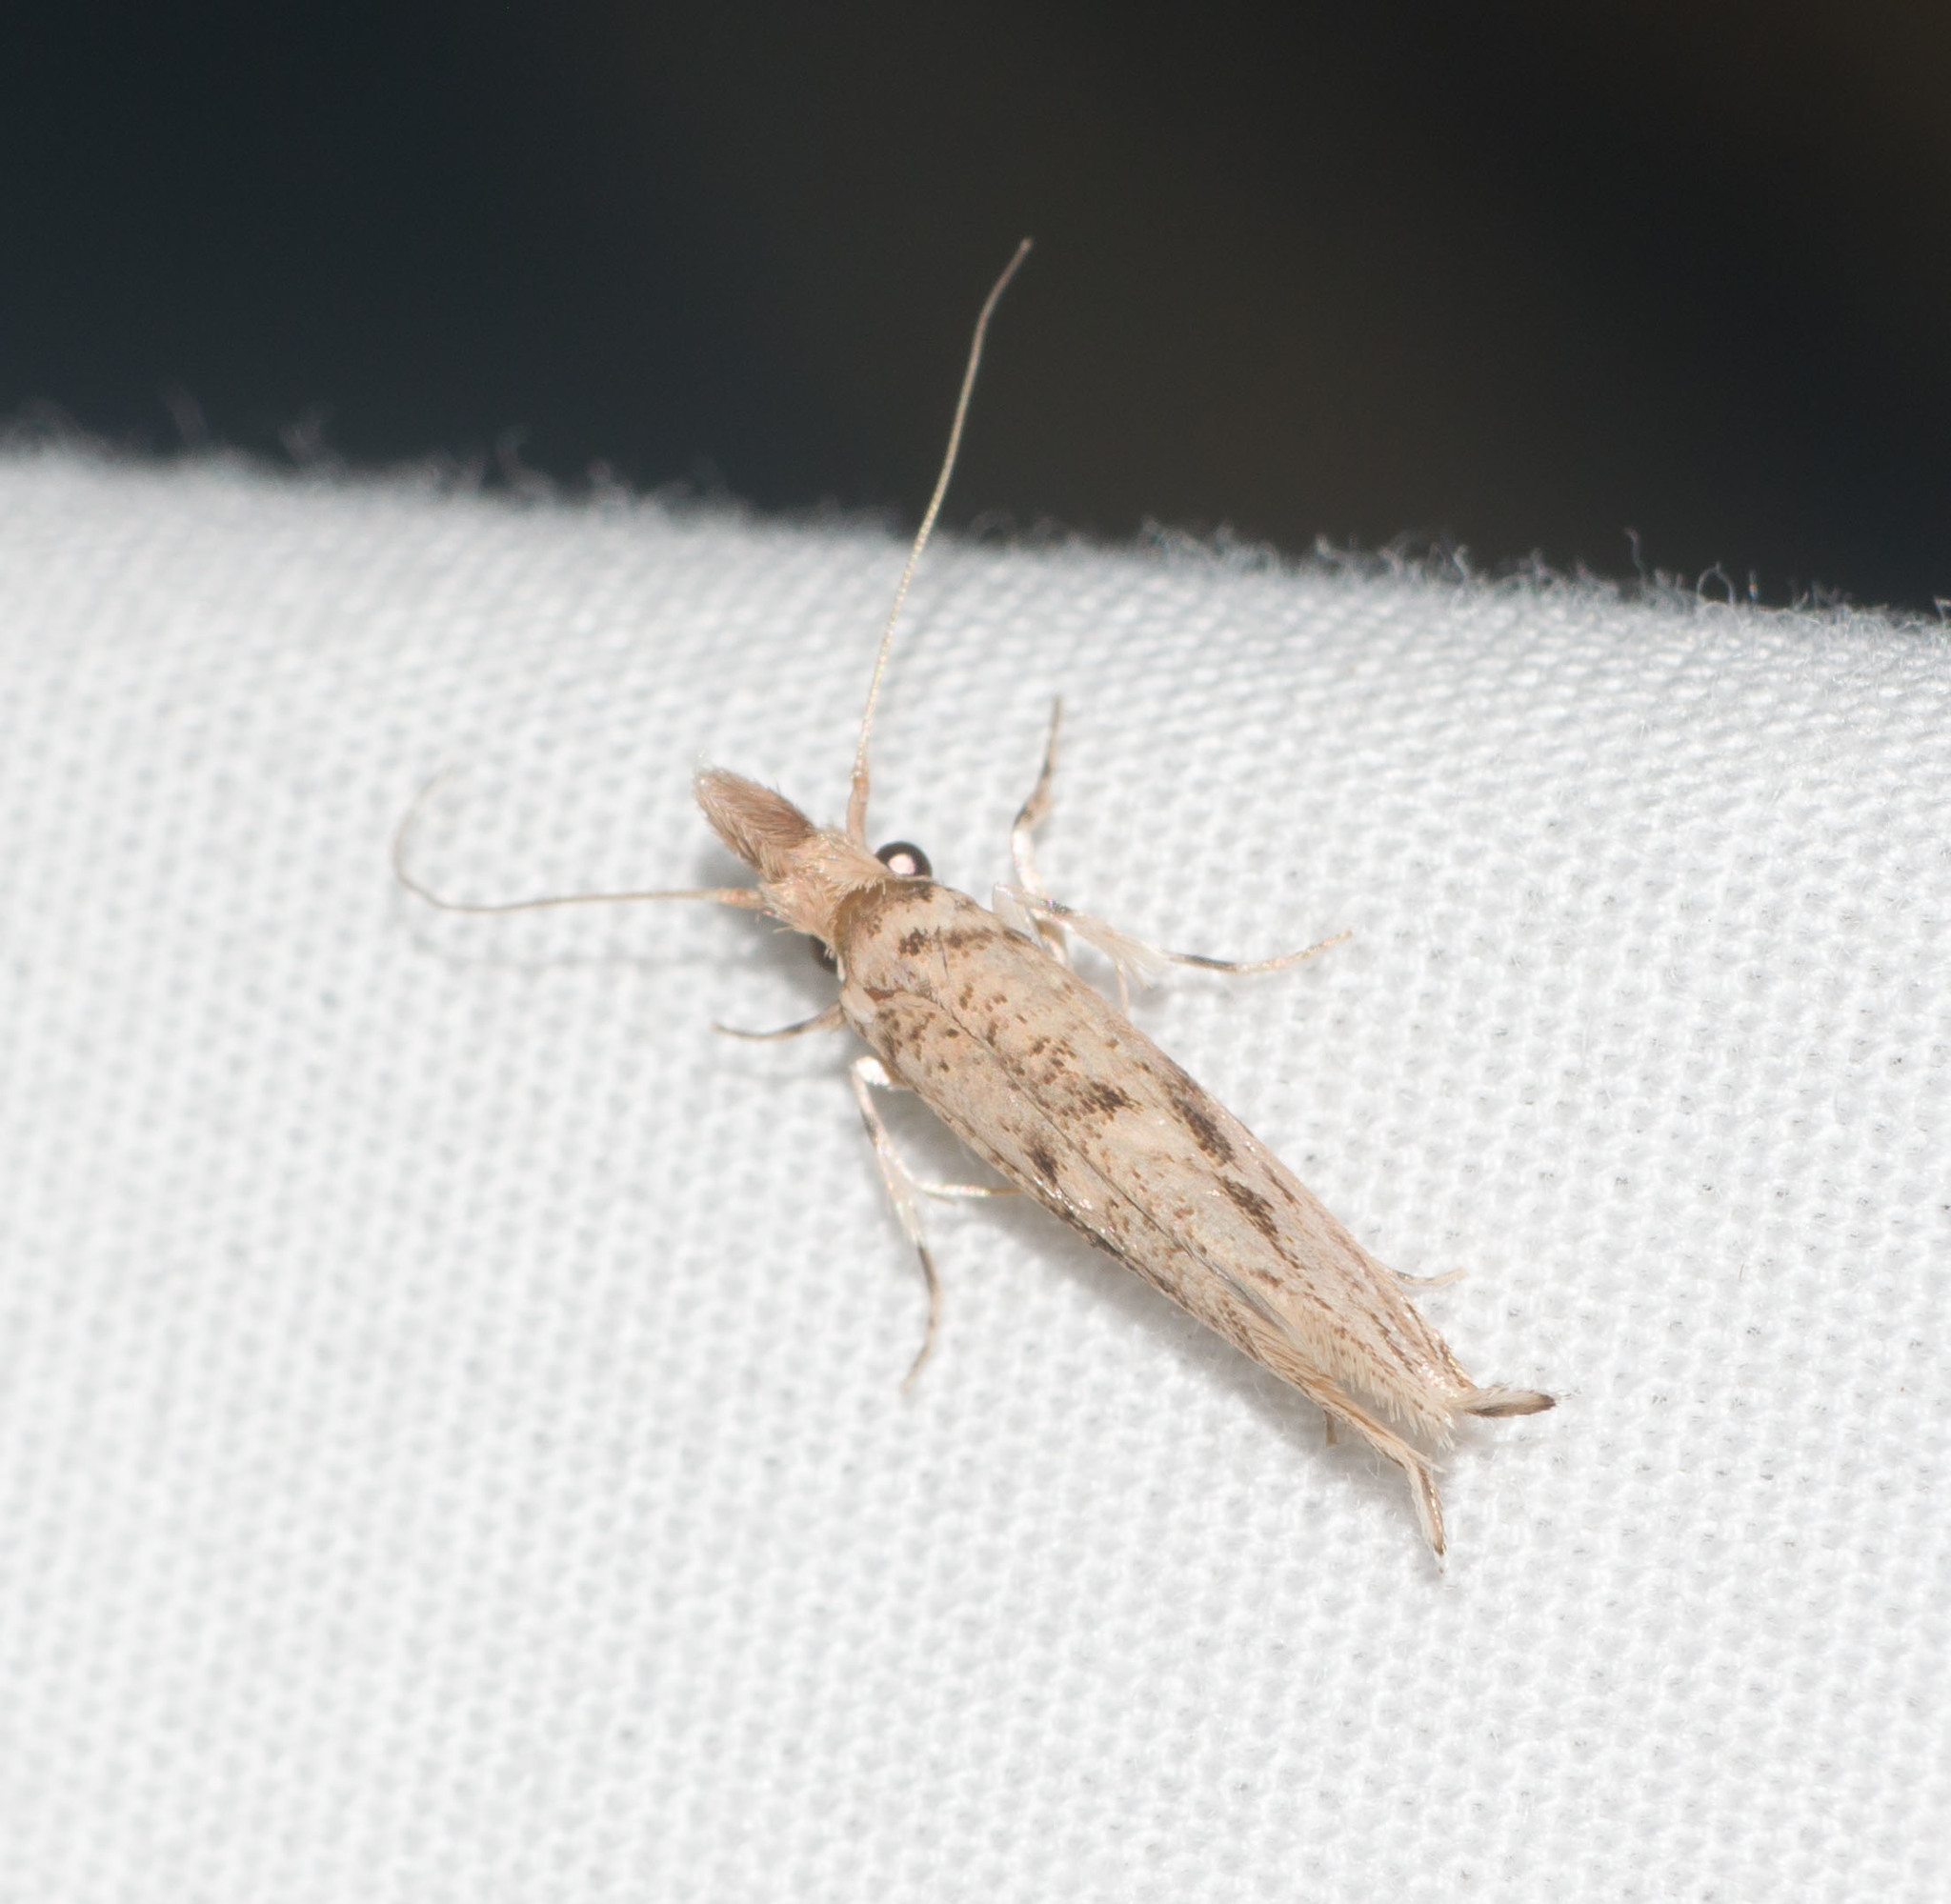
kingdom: Animalia
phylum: Arthropoda
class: Insecta
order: Lepidoptera
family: Tineidae
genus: Erechthias
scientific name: Erechthias pelotricha
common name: Fungus moth
